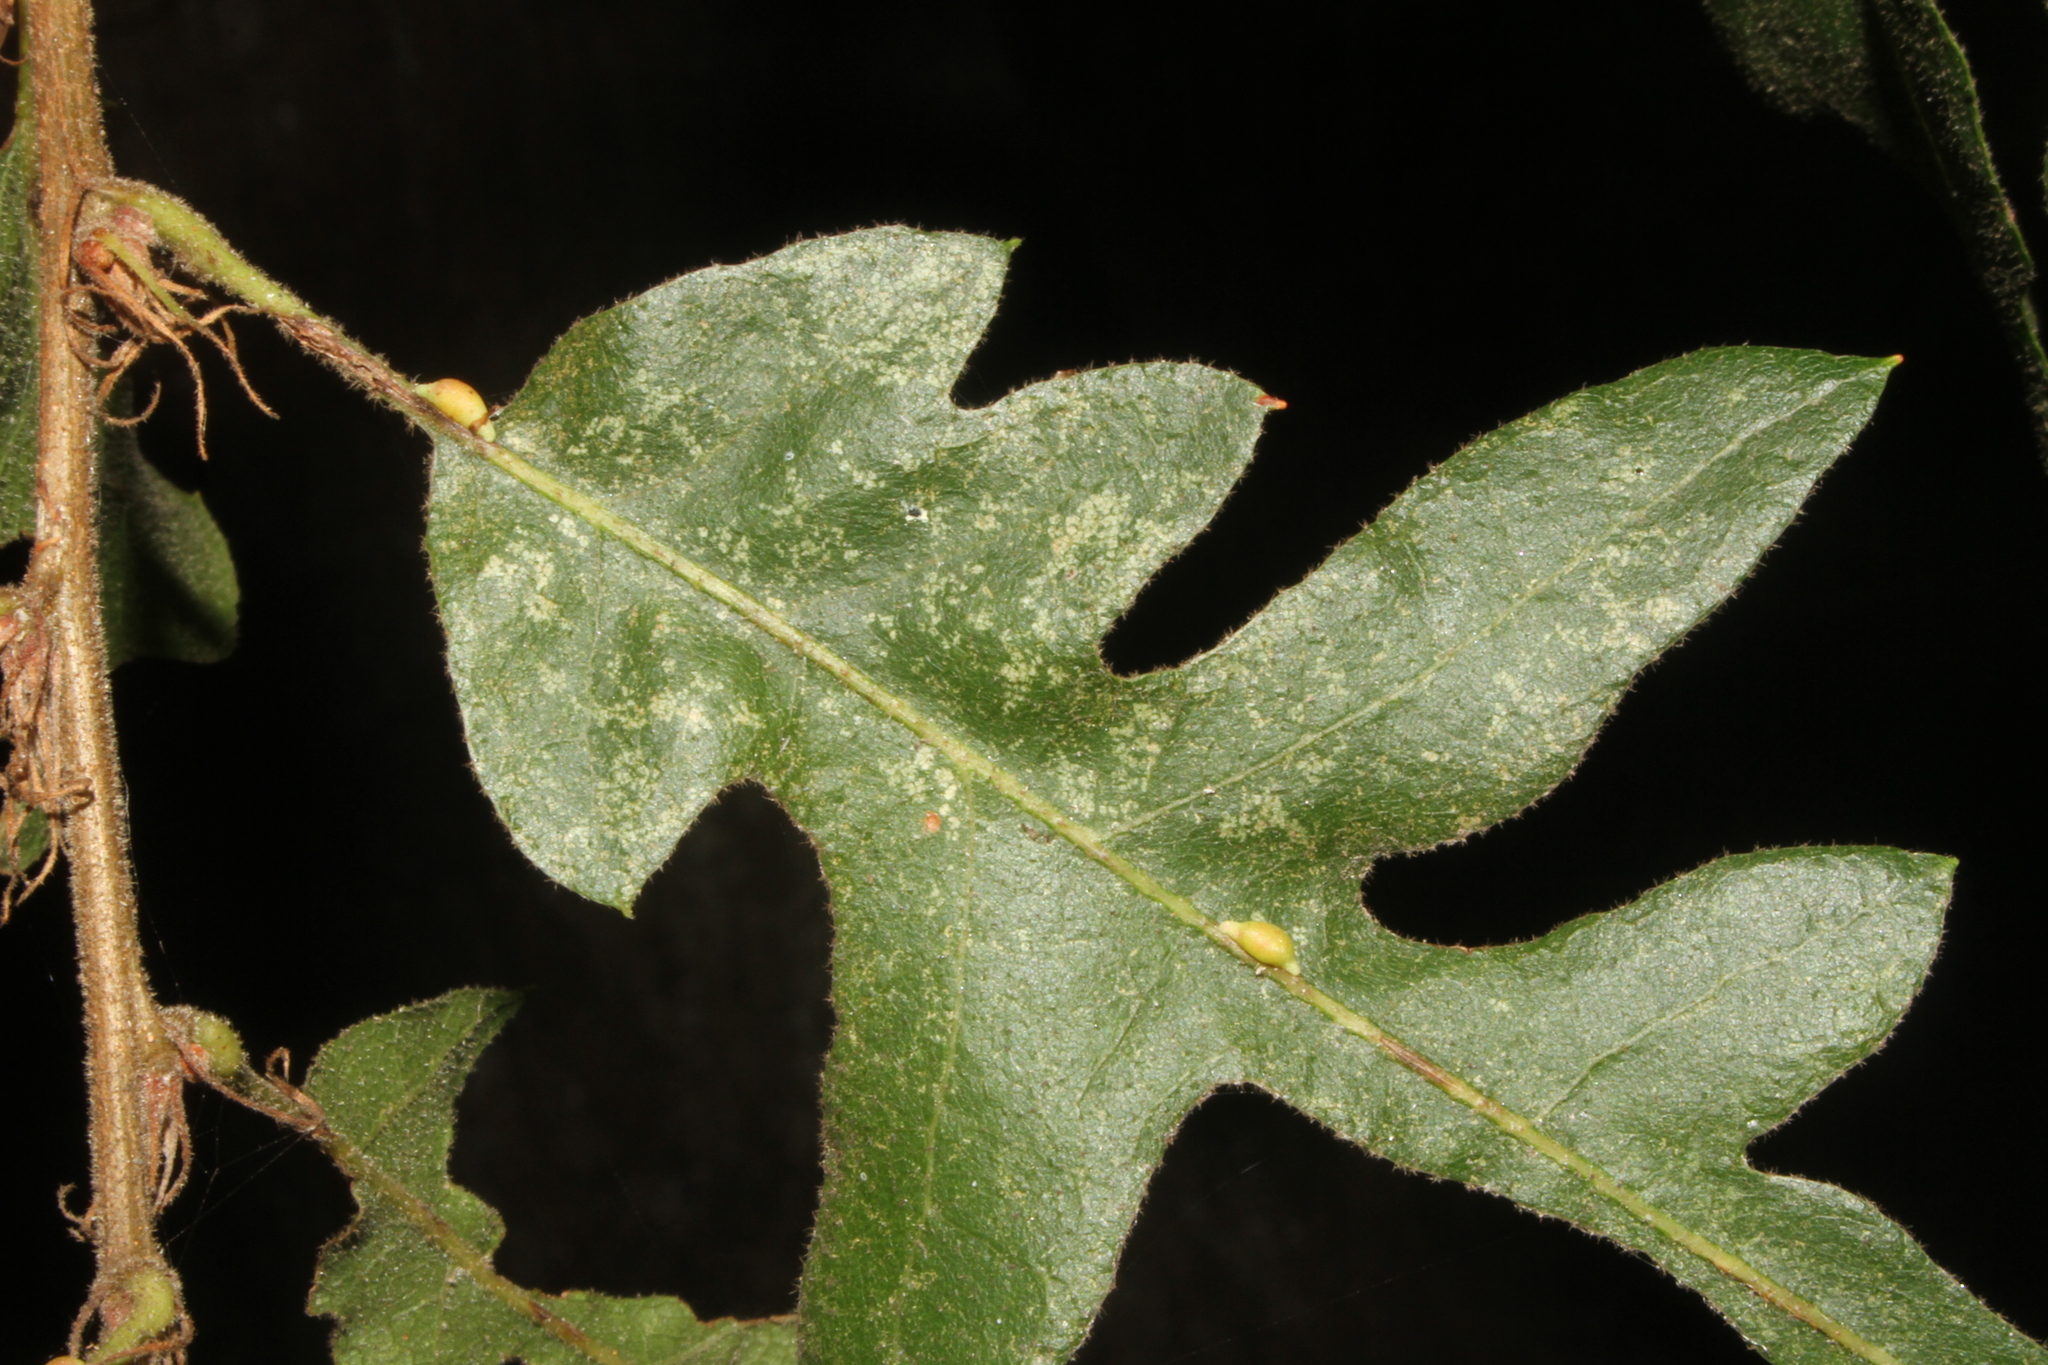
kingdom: Animalia
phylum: Arthropoda
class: Insecta
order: Hymenoptera
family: Cynipidae
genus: Neuroterus
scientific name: Neuroterus saliens
